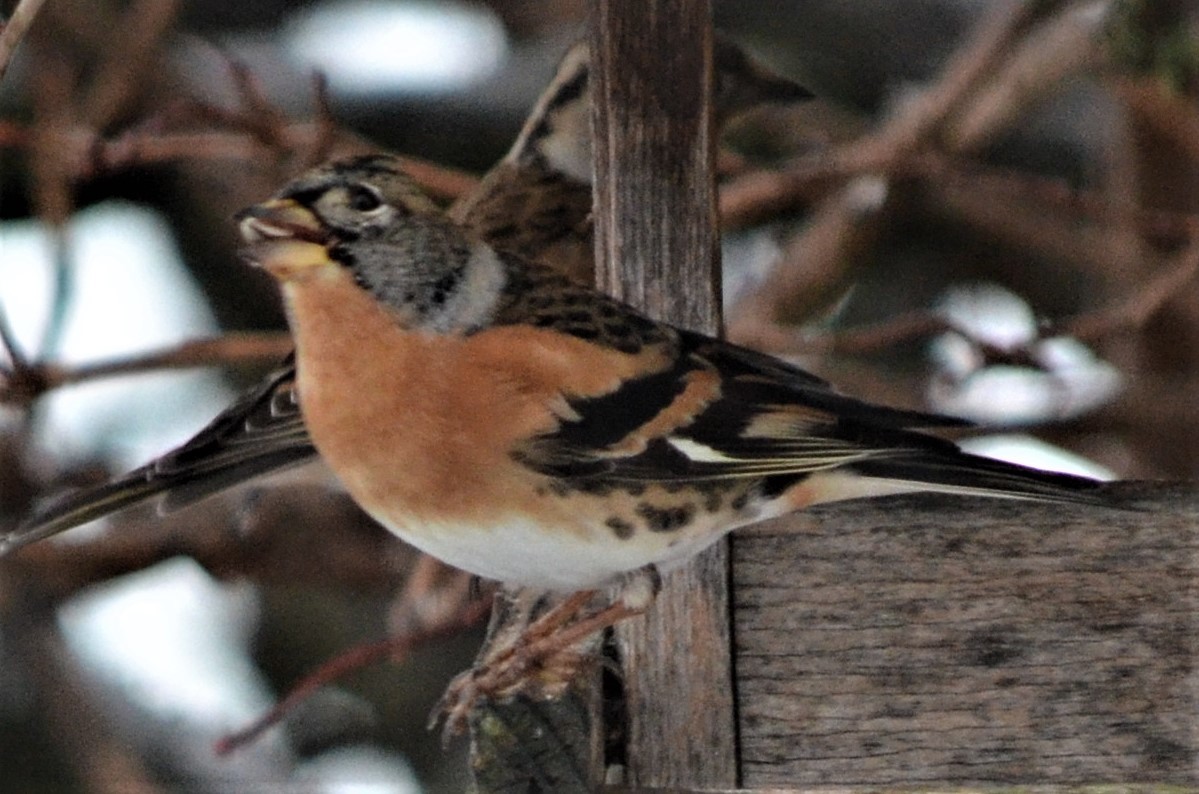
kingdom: Animalia
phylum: Chordata
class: Aves
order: Passeriformes
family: Fringillidae
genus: Fringilla
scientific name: Fringilla montifringilla
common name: Brambling
